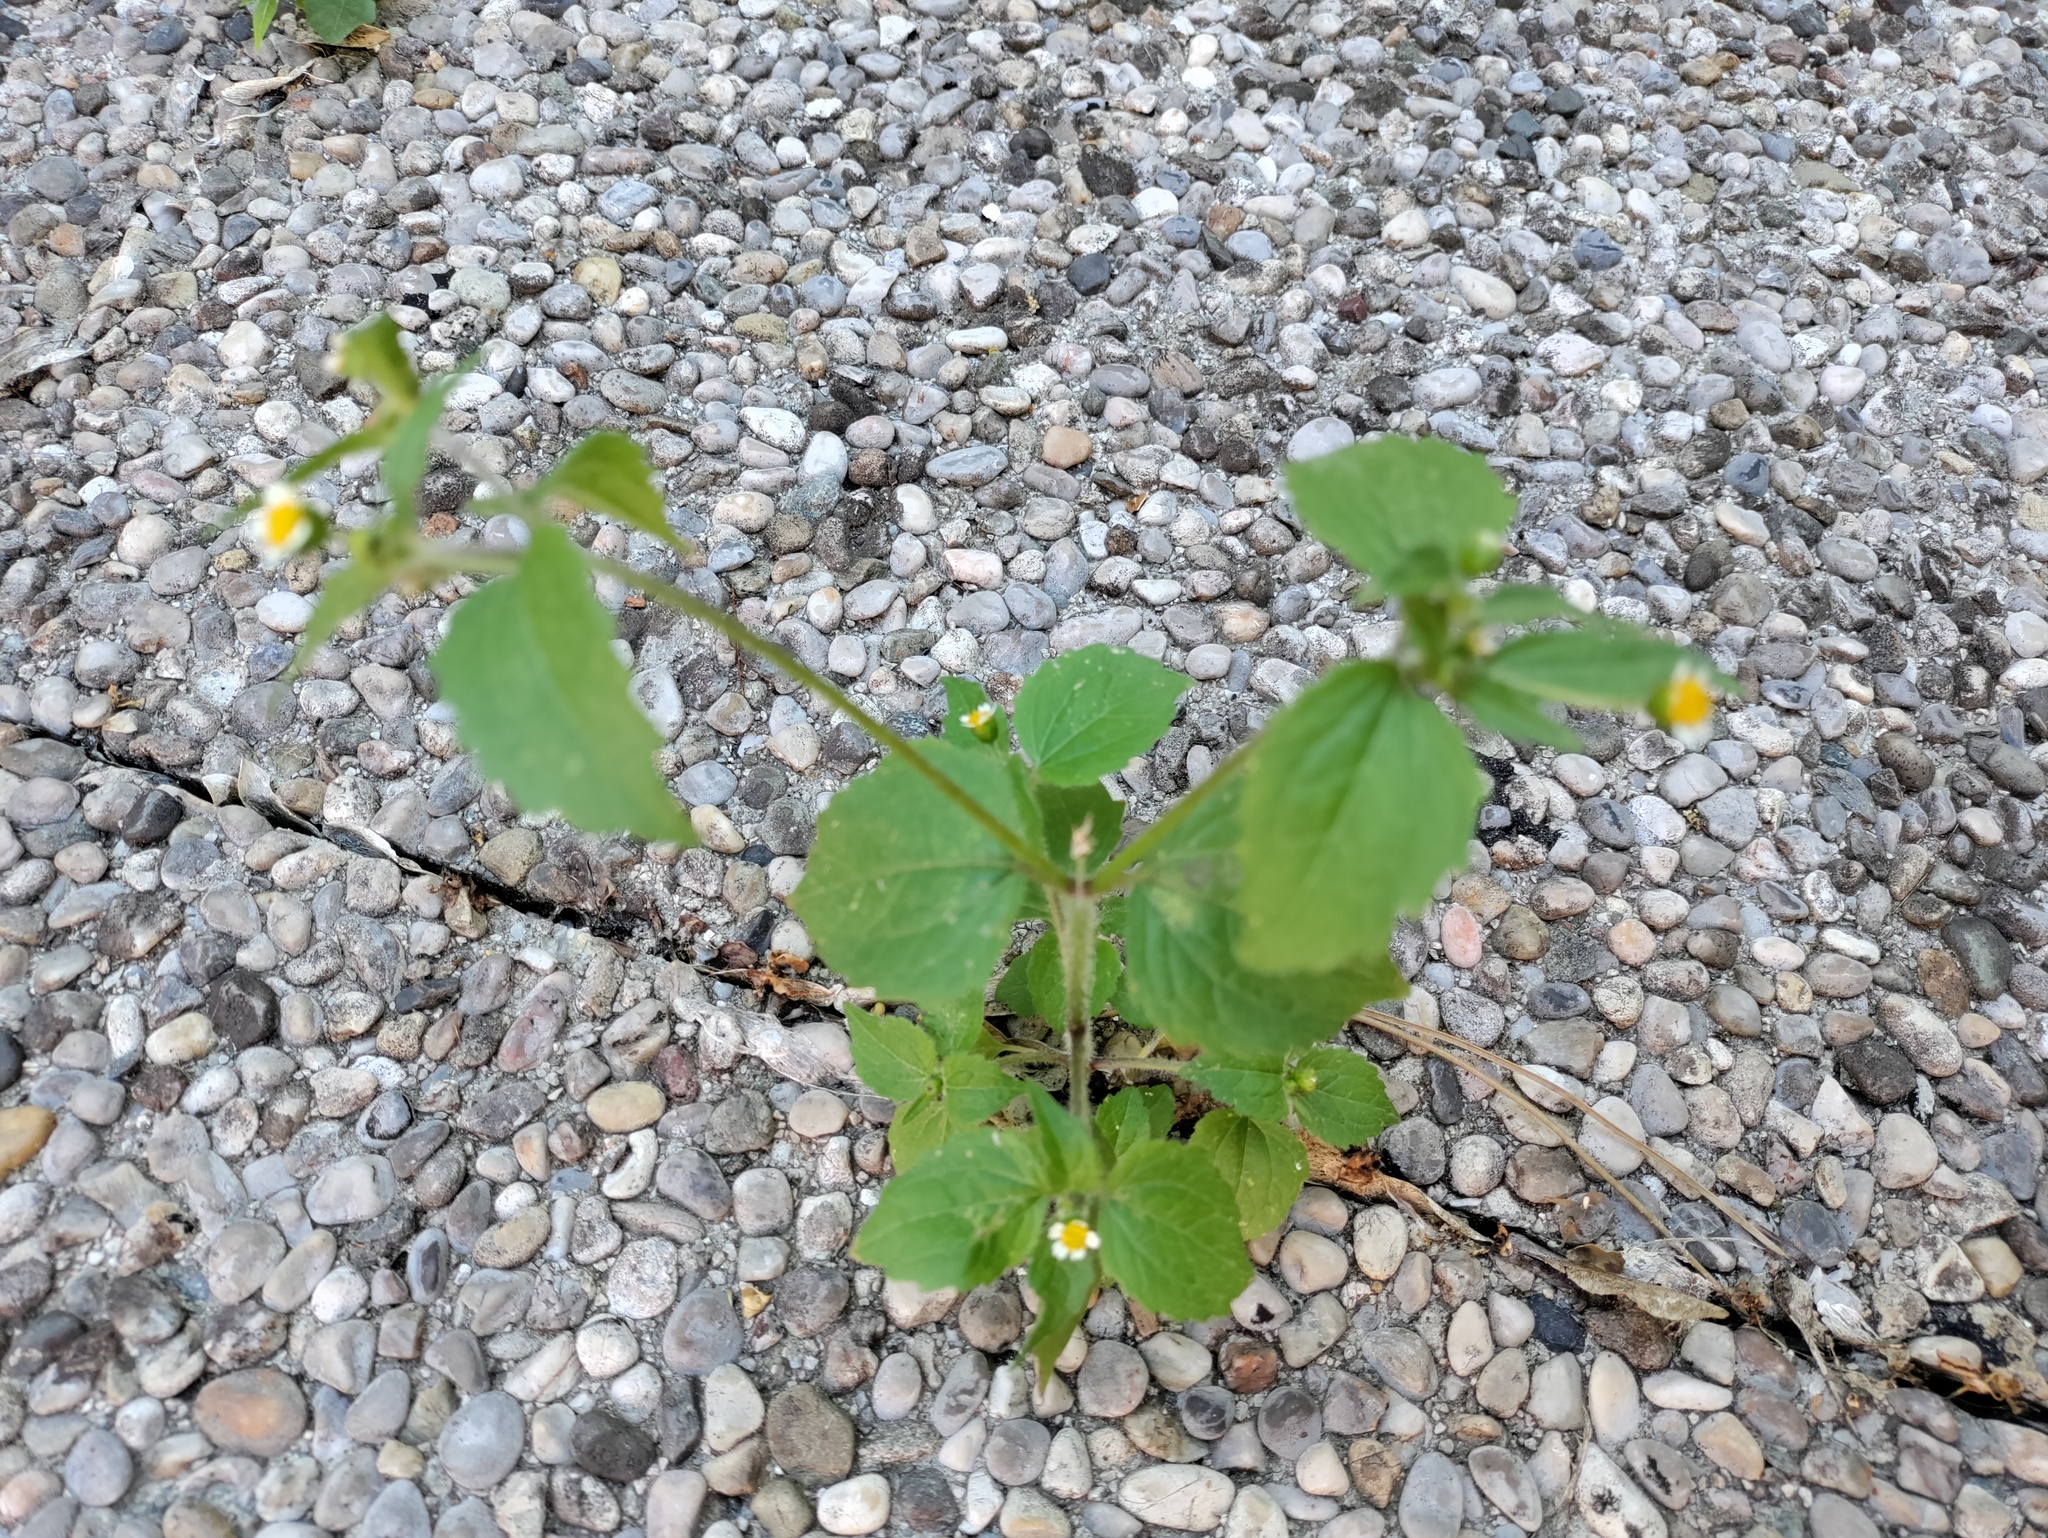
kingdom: Plantae
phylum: Tracheophyta
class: Magnoliopsida
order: Asterales
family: Asteraceae
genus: Galinsoga
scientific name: Galinsoga quadriradiata
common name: Shaggy soldier
